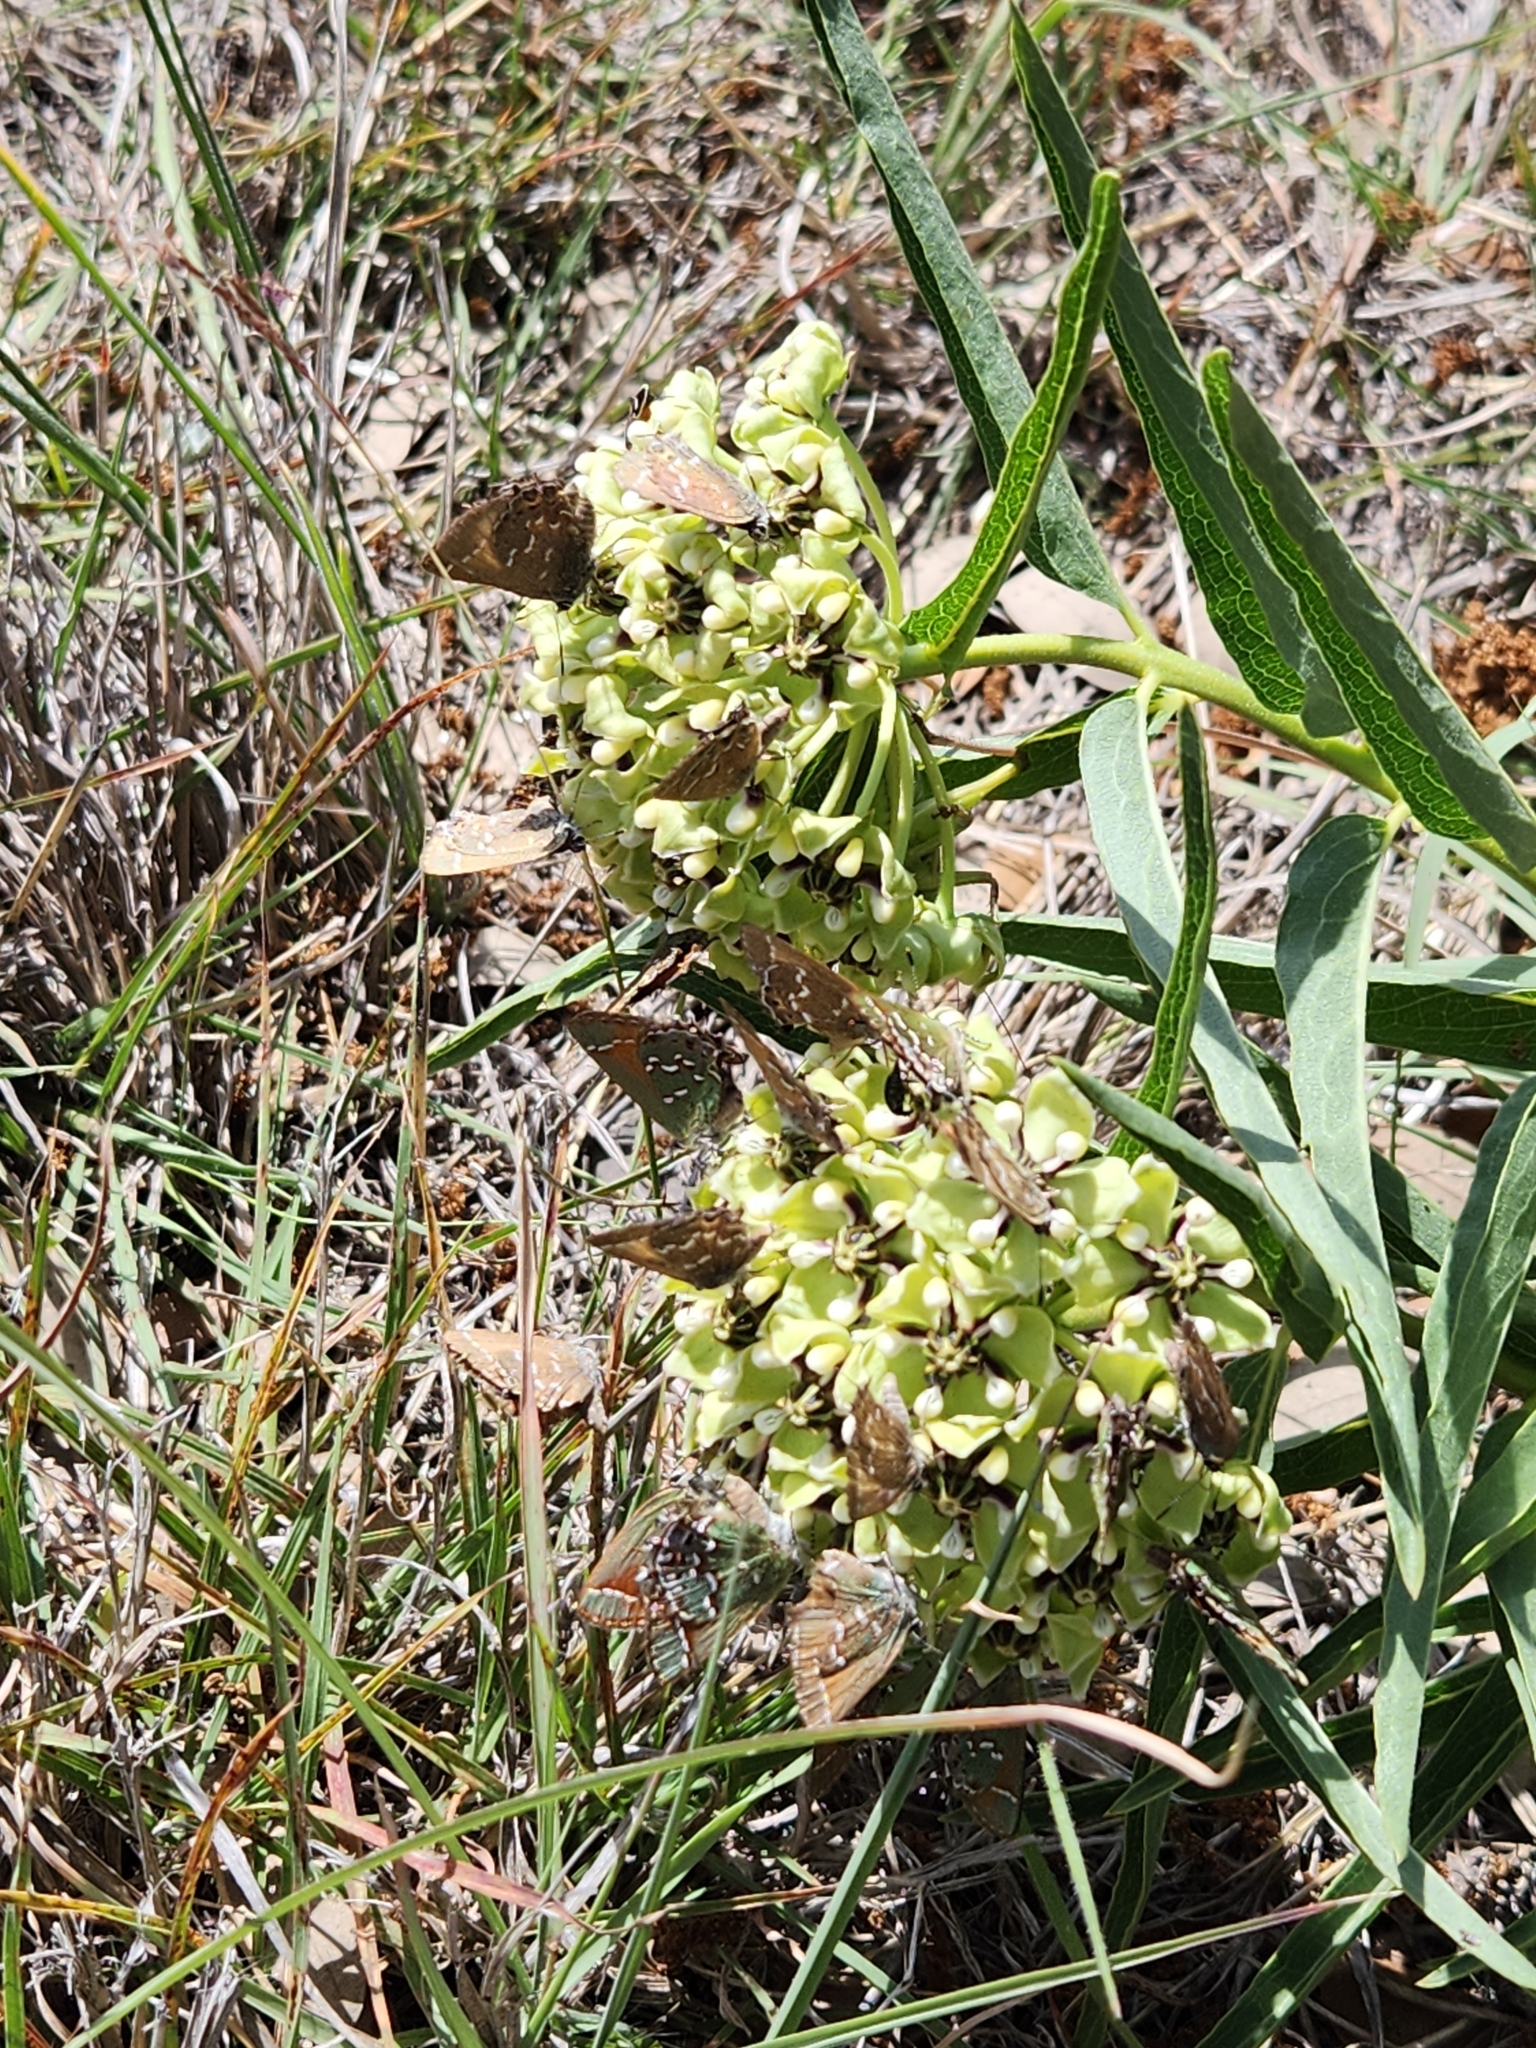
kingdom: Animalia
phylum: Arthropoda
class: Insecta
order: Lepidoptera
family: Lycaenidae
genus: Mitoura
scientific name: Mitoura gryneus
